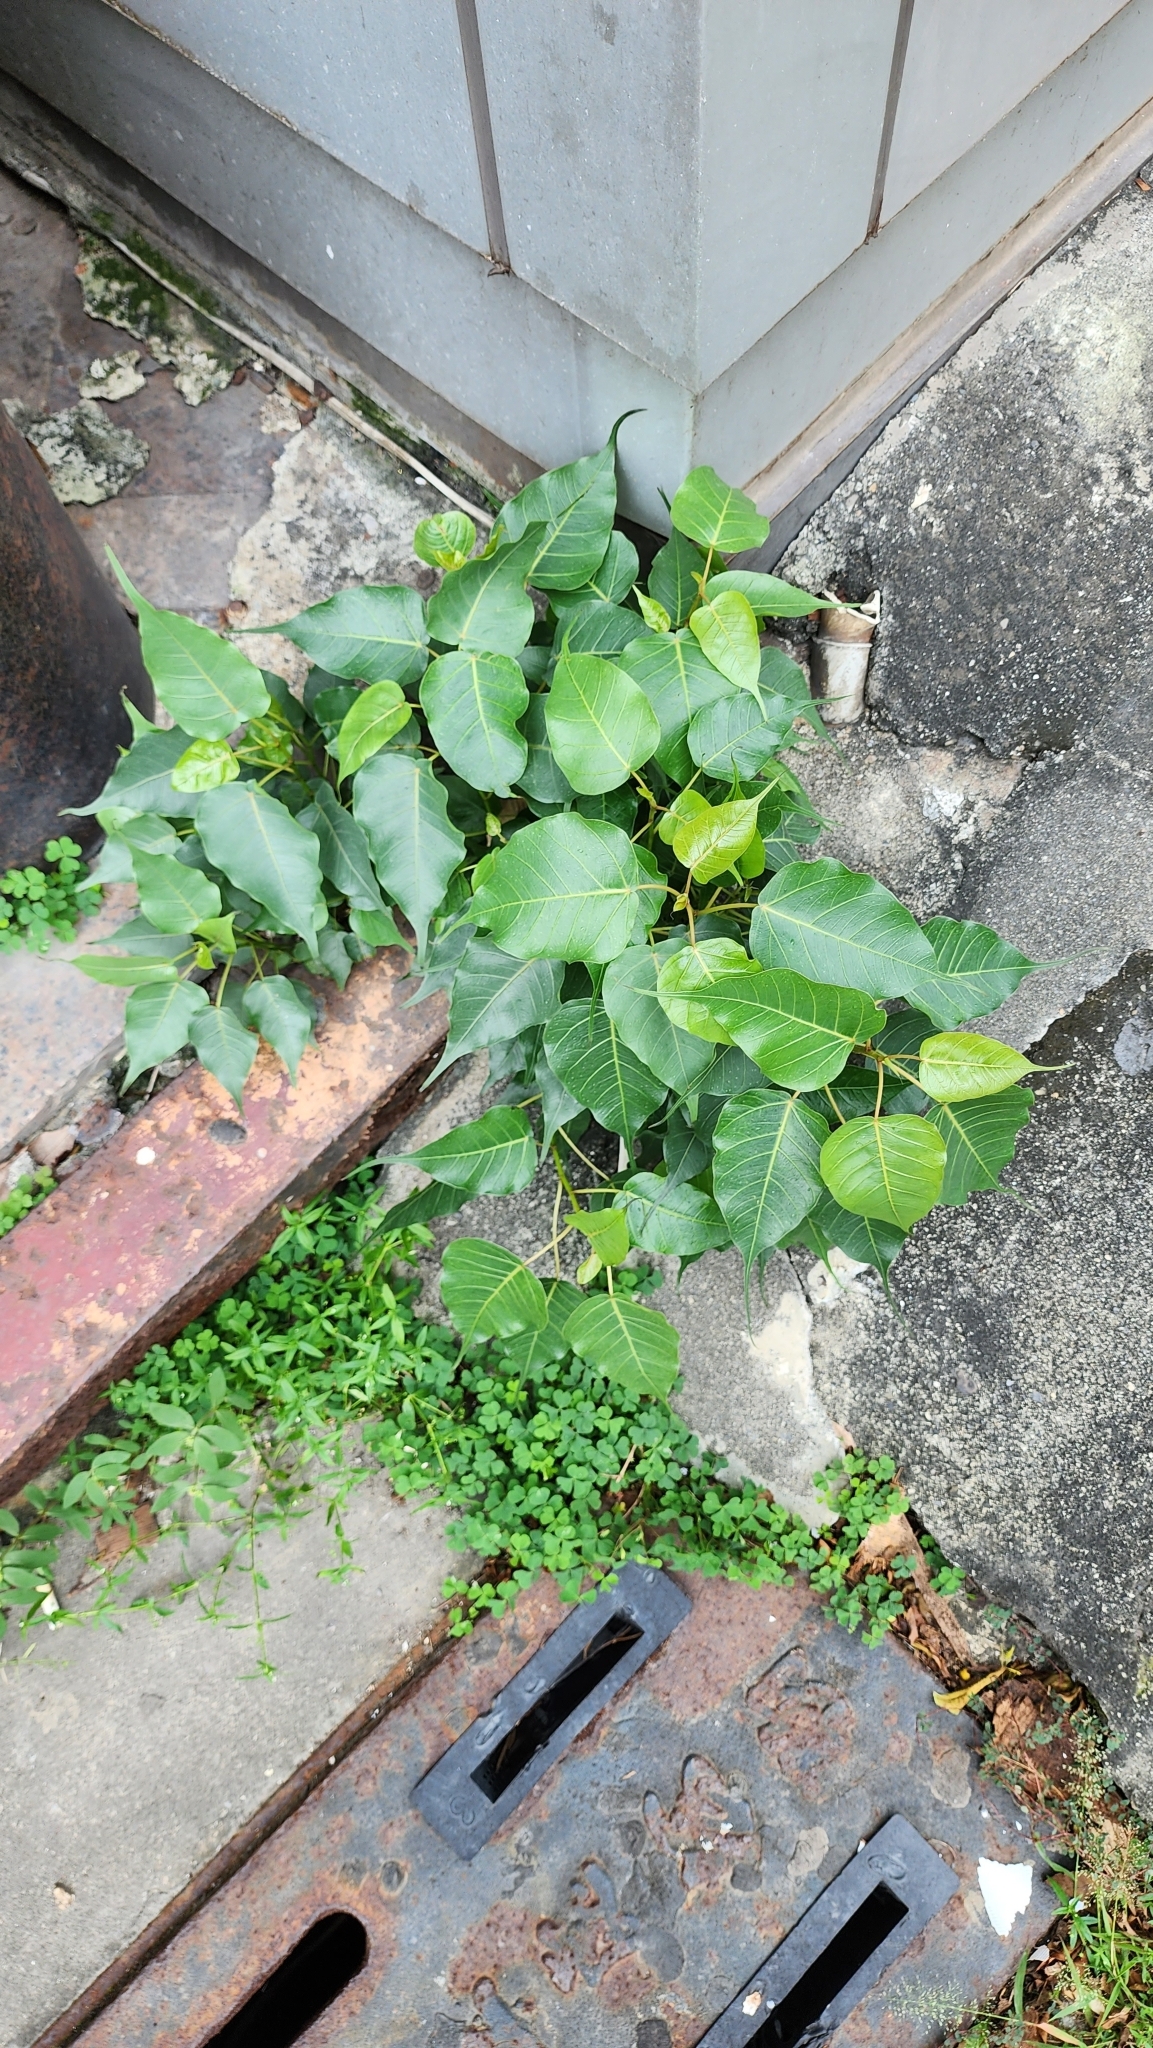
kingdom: Plantae
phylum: Tracheophyta
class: Magnoliopsida
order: Rosales
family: Moraceae
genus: Ficus
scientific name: Ficus religiosa
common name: Bodhi tree
